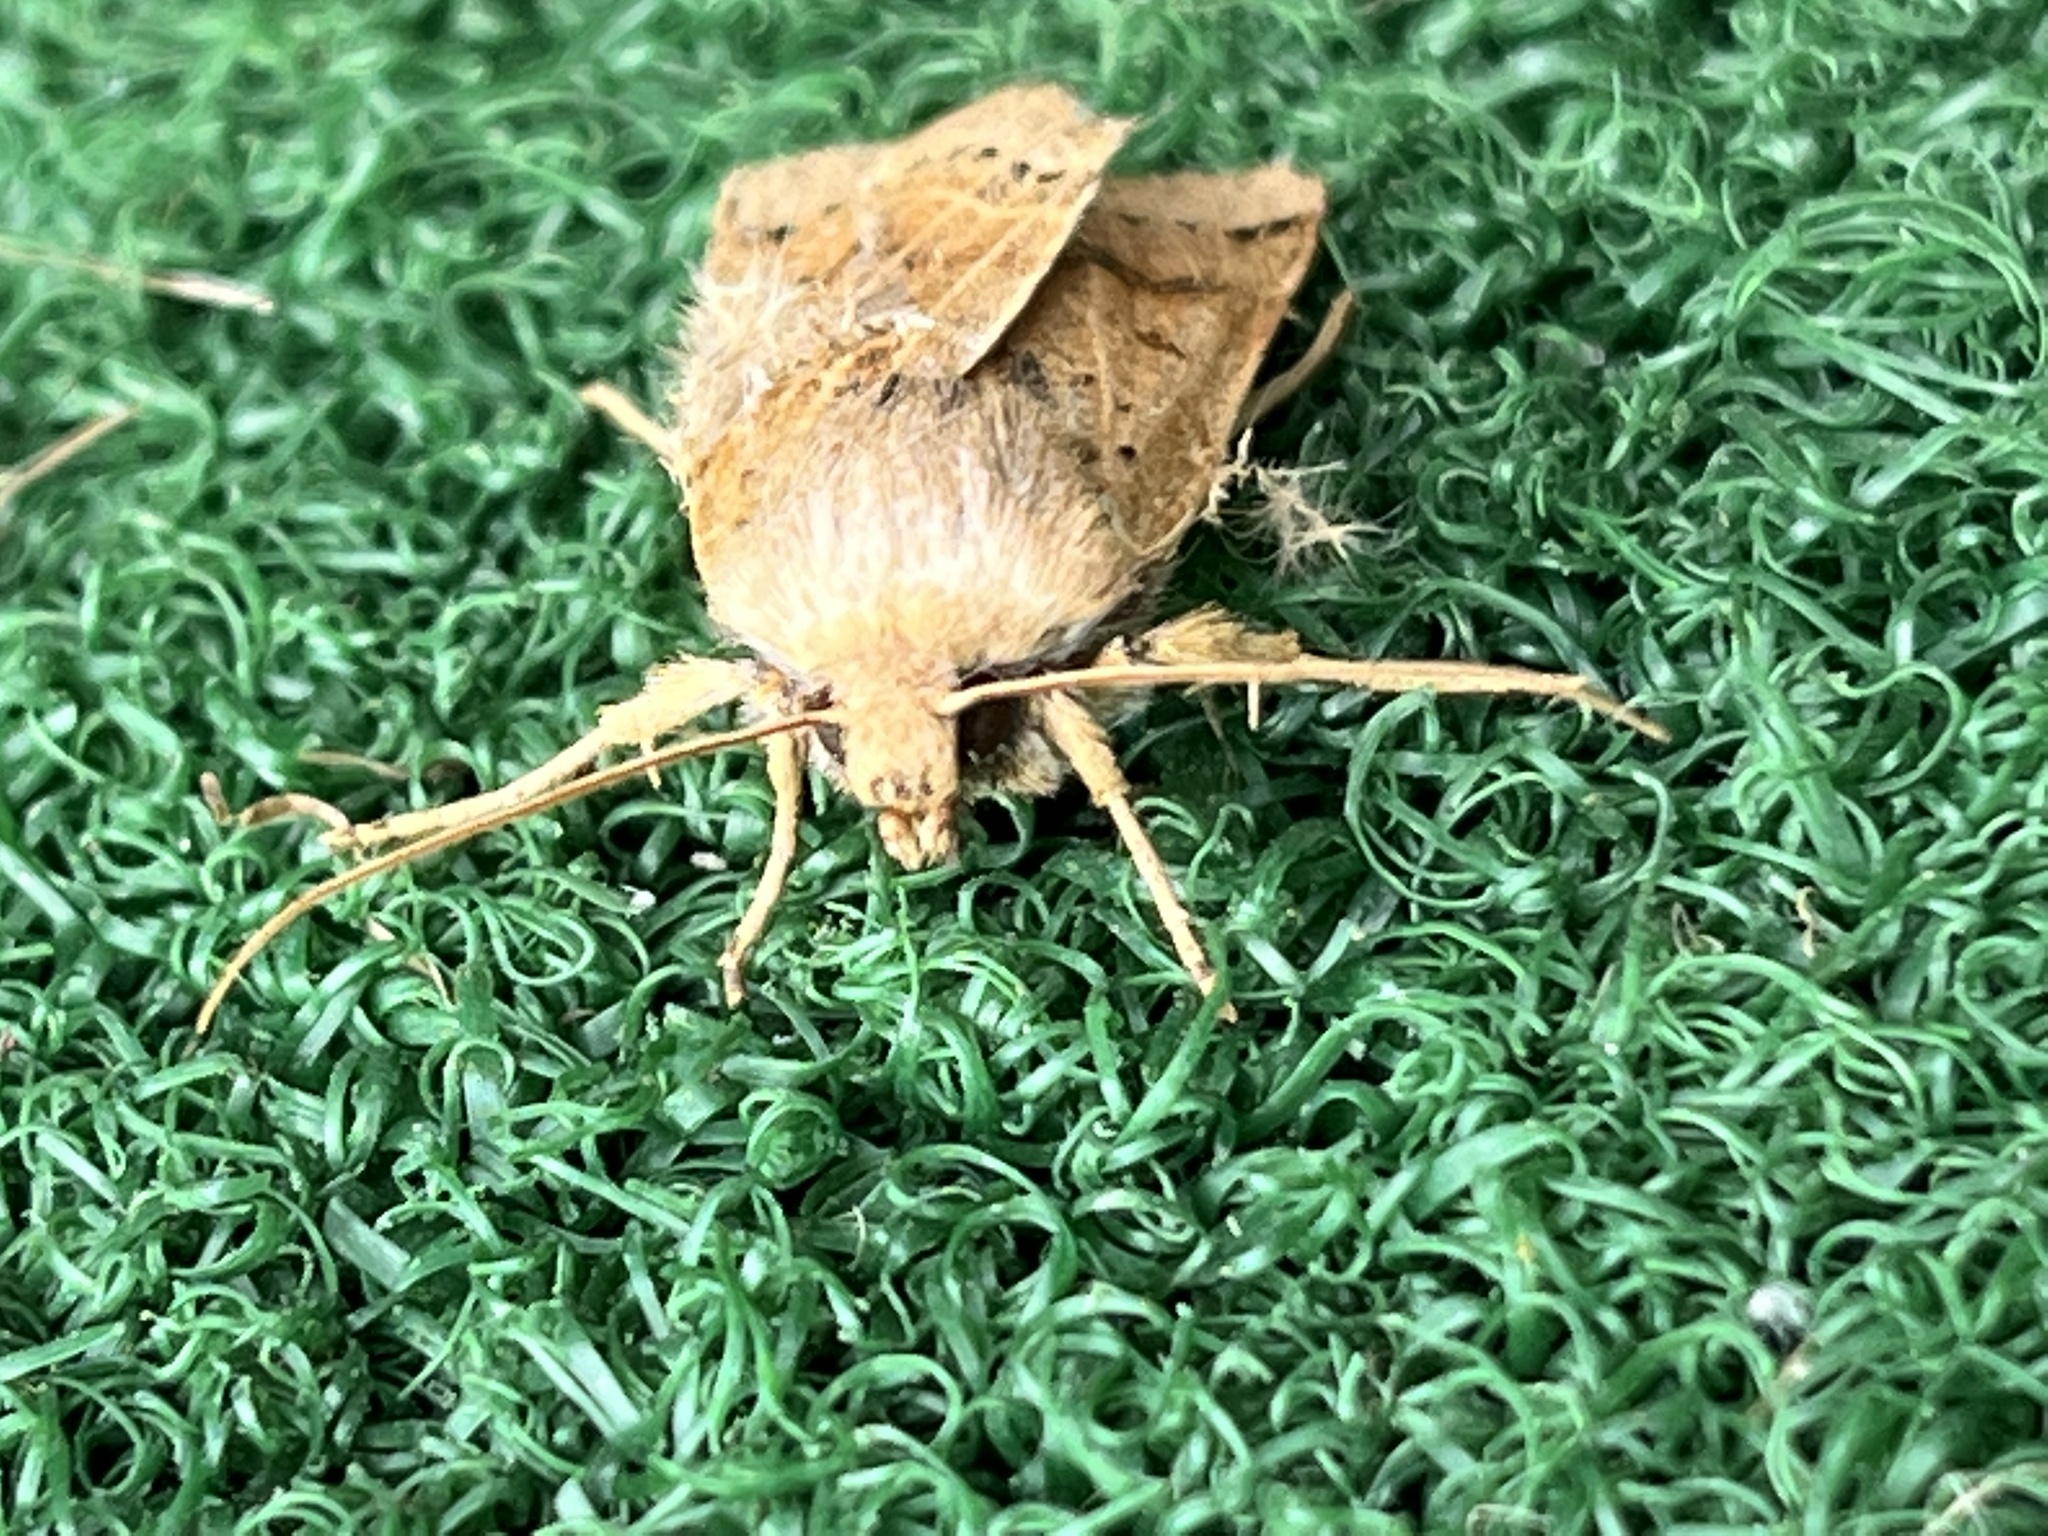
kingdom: Animalia
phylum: Arthropoda
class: Insecta
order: Lepidoptera
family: Noctuidae
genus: Agrochola
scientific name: Agrochola lunosa
